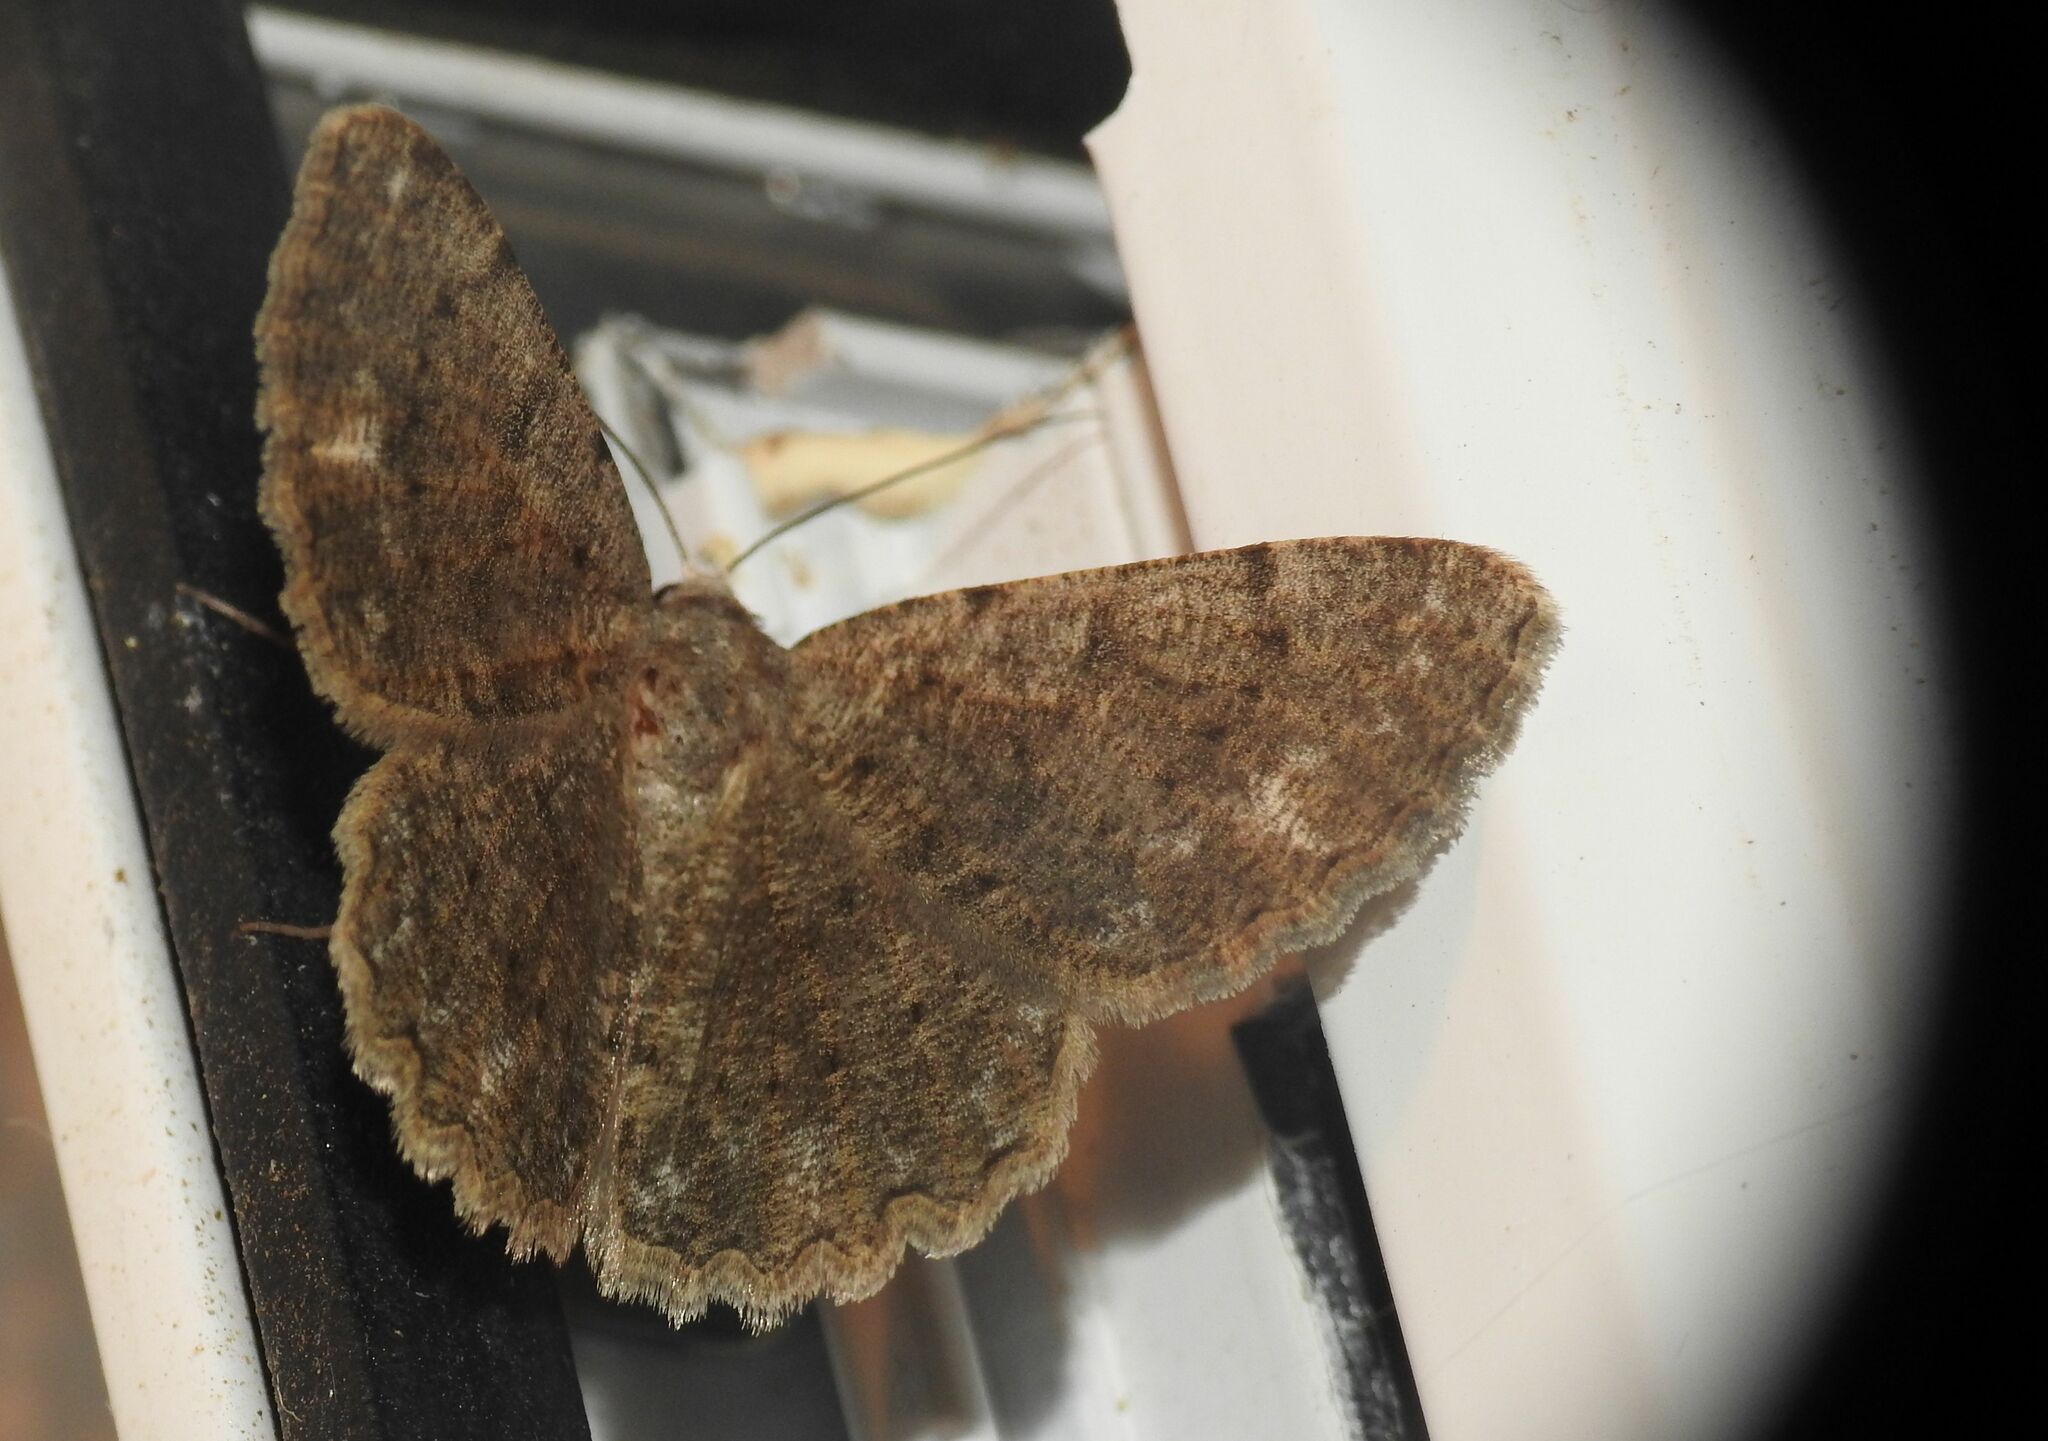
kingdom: Animalia
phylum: Arthropoda
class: Insecta
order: Lepidoptera
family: Geometridae
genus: Gnophos
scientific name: Gnophos sartata
